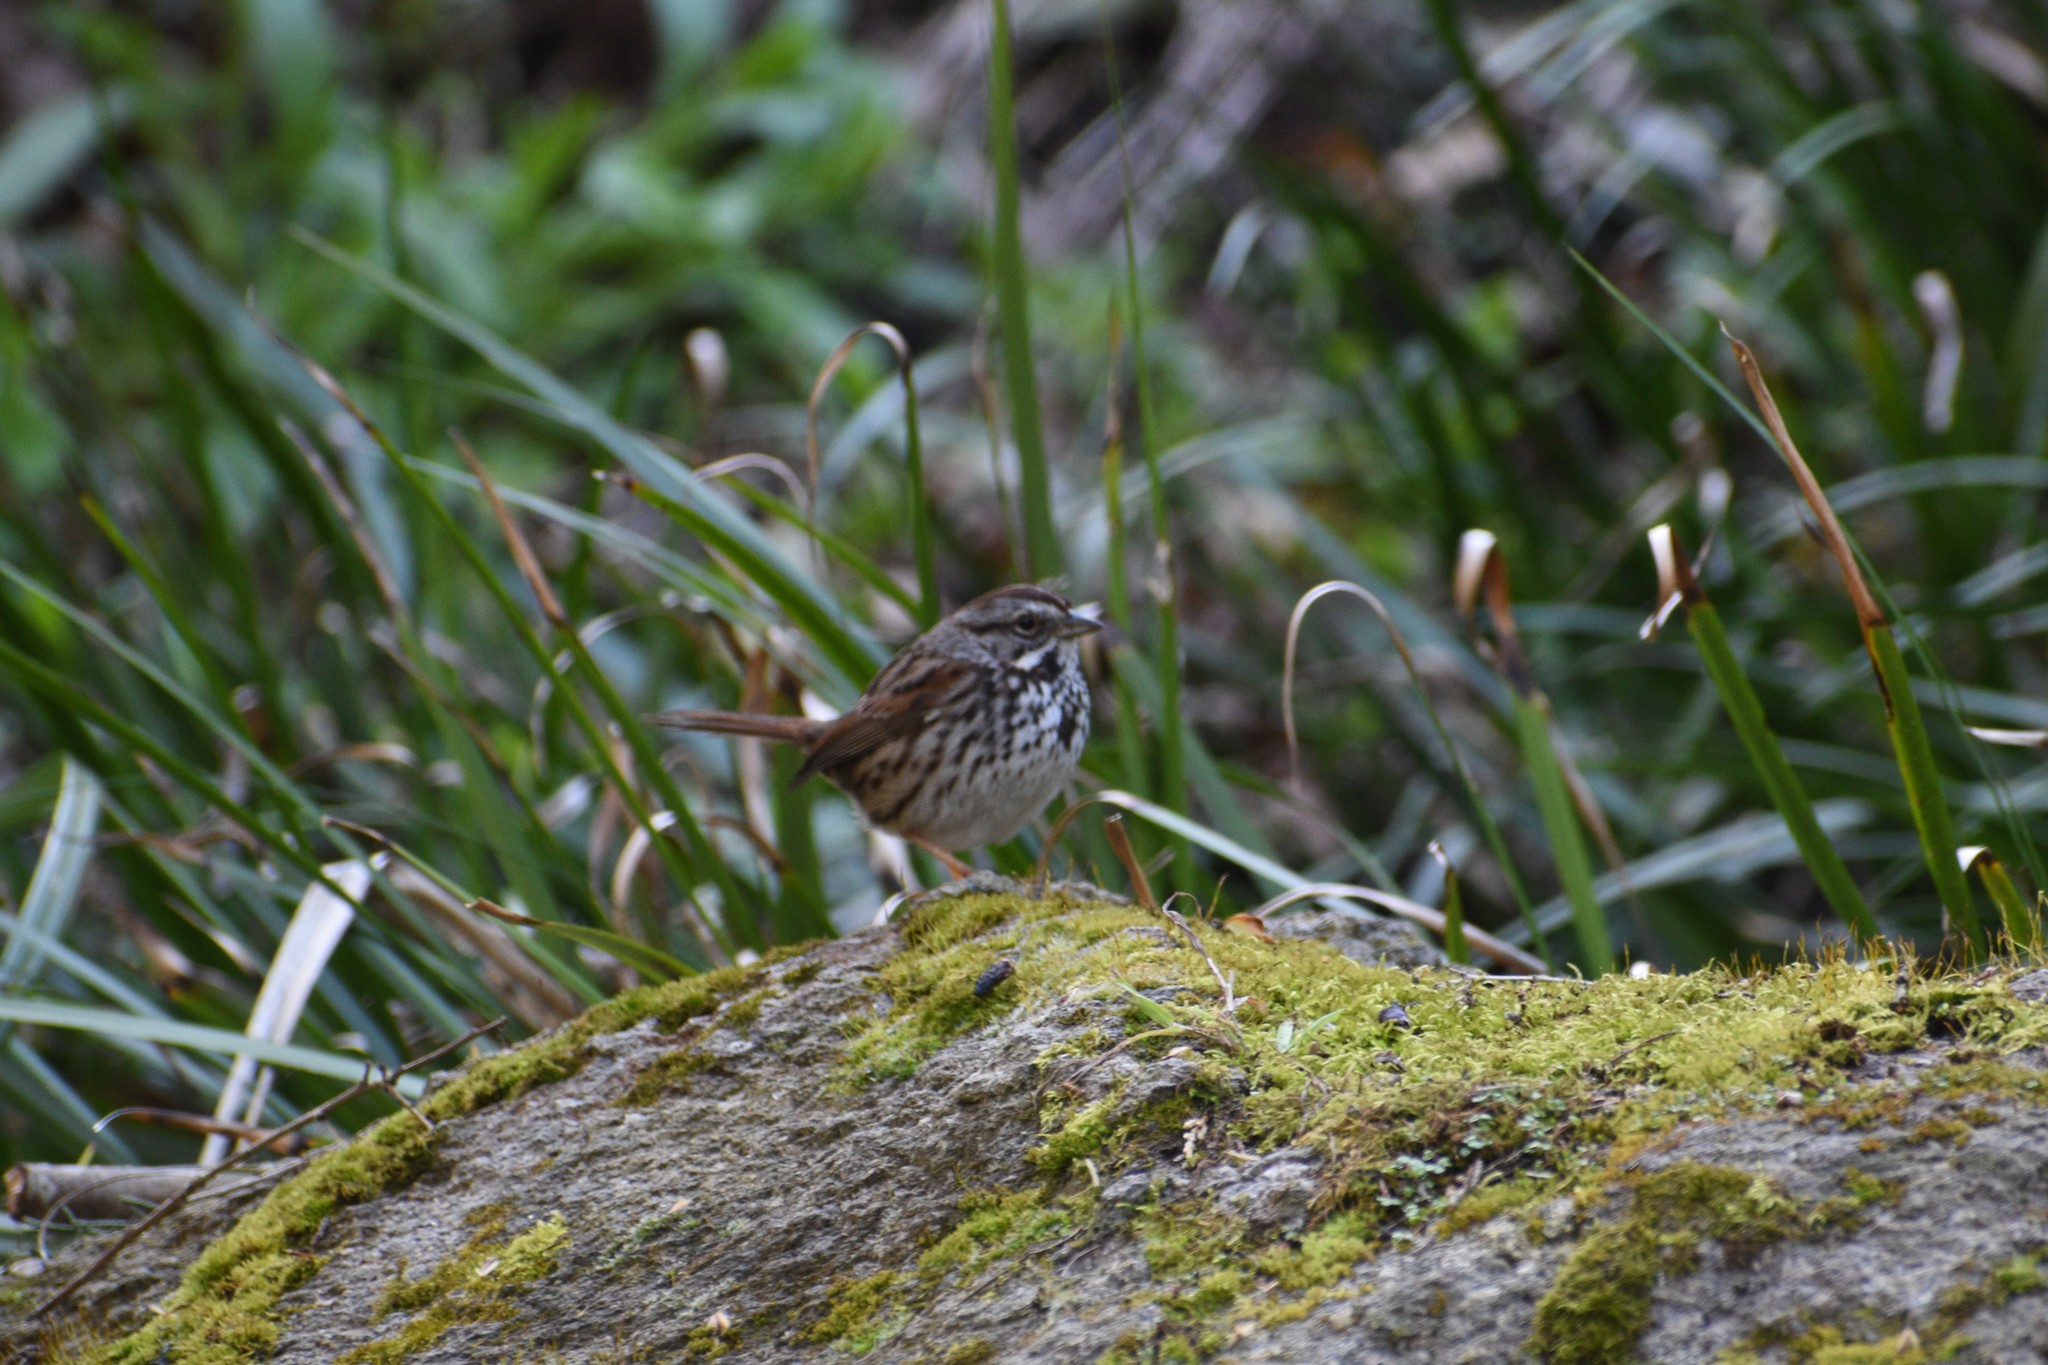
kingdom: Animalia
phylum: Chordata
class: Aves
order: Passeriformes
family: Passerellidae
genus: Melospiza
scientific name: Melospiza melodia
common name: Song sparrow
